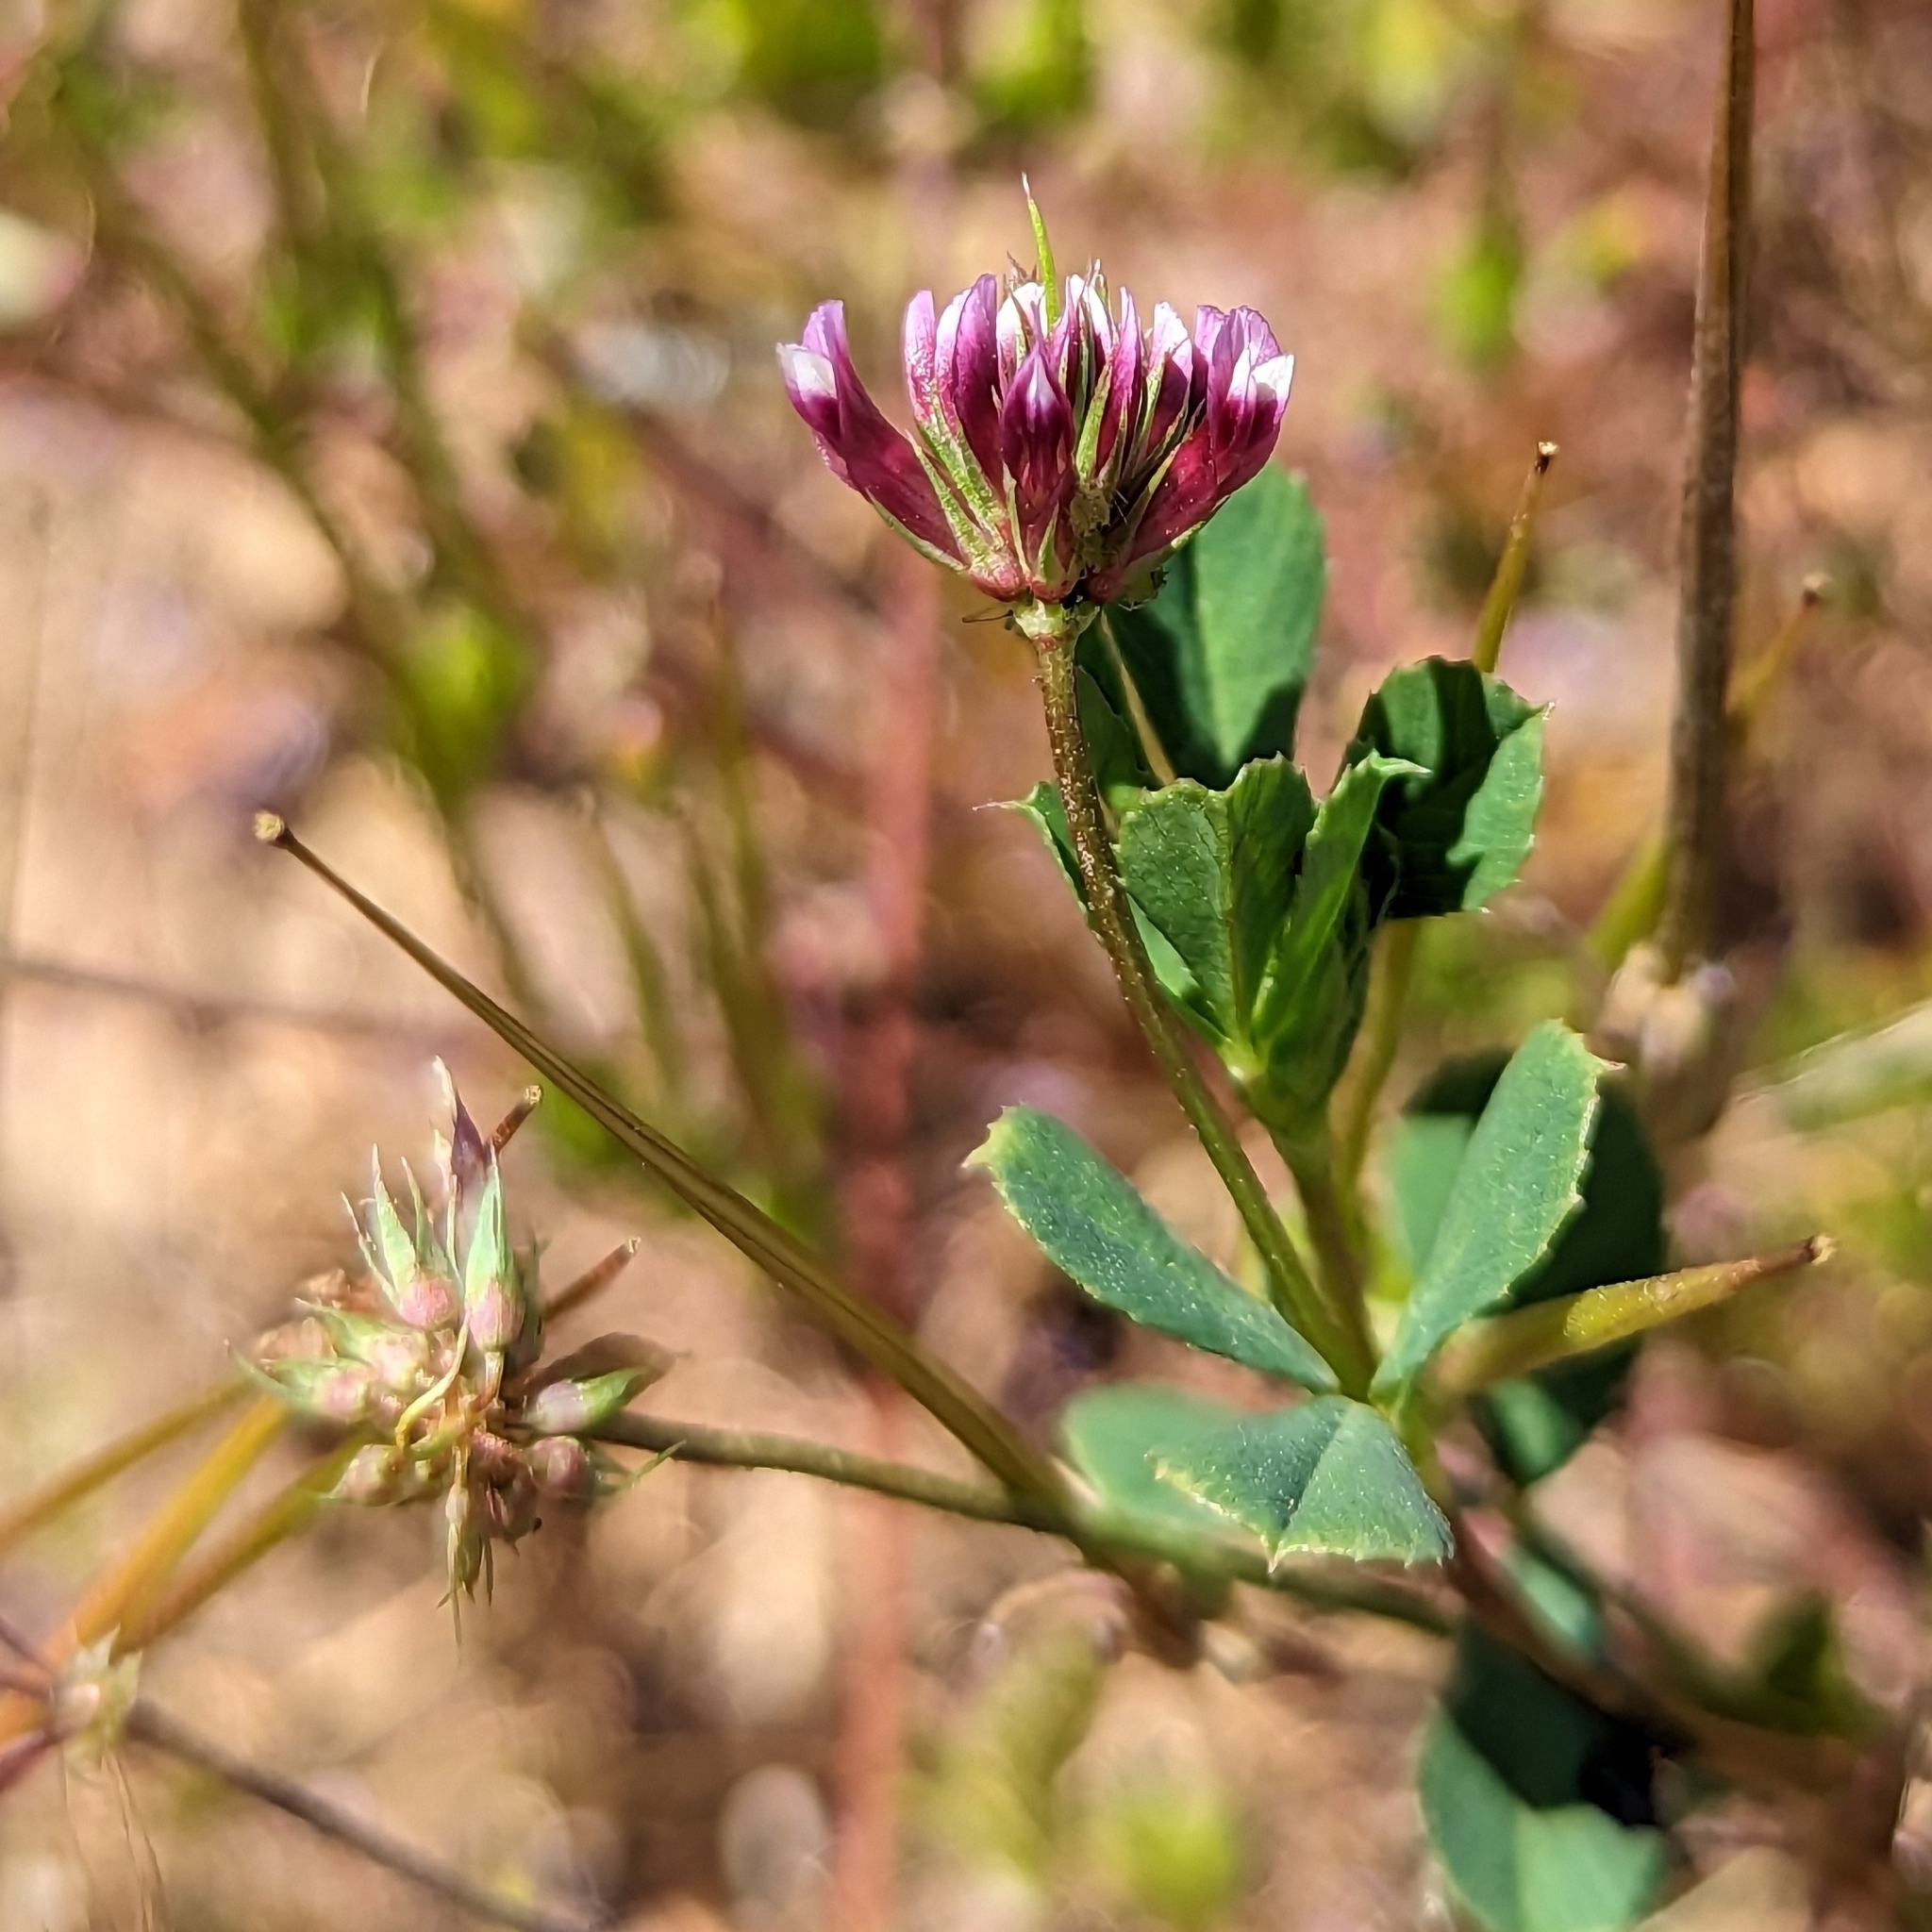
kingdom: Plantae
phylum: Tracheophyta
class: Magnoliopsida
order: Fabales
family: Fabaceae
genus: Trifolium
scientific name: Trifolium gracilentum
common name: Slender clover
